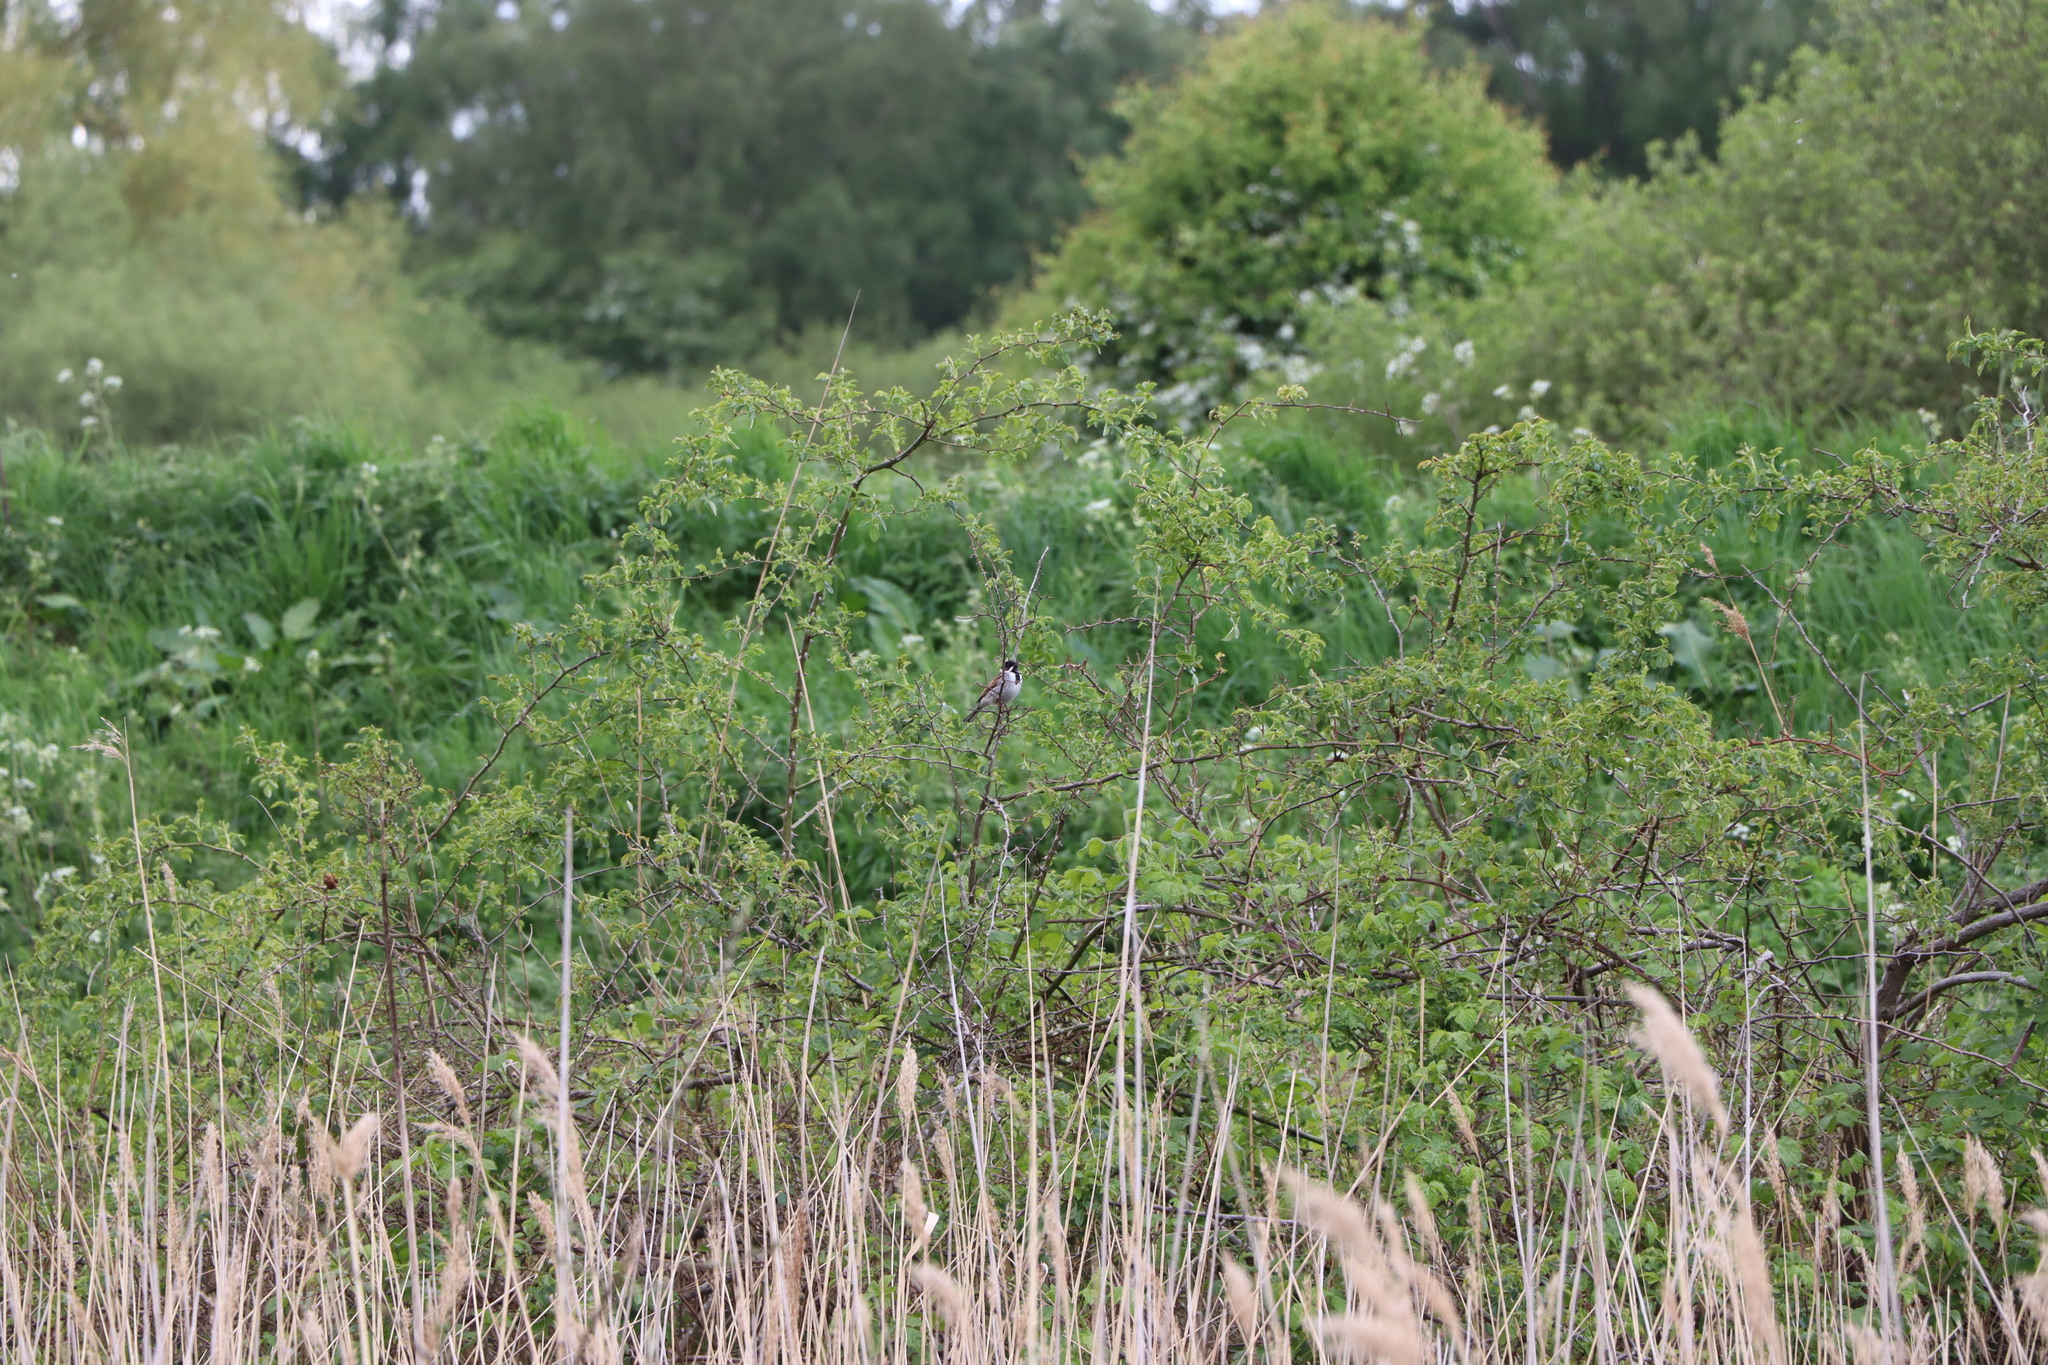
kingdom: Animalia
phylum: Chordata
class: Aves
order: Passeriformes
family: Emberizidae
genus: Emberiza
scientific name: Emberiza schoeniclus
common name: Reed bunting
